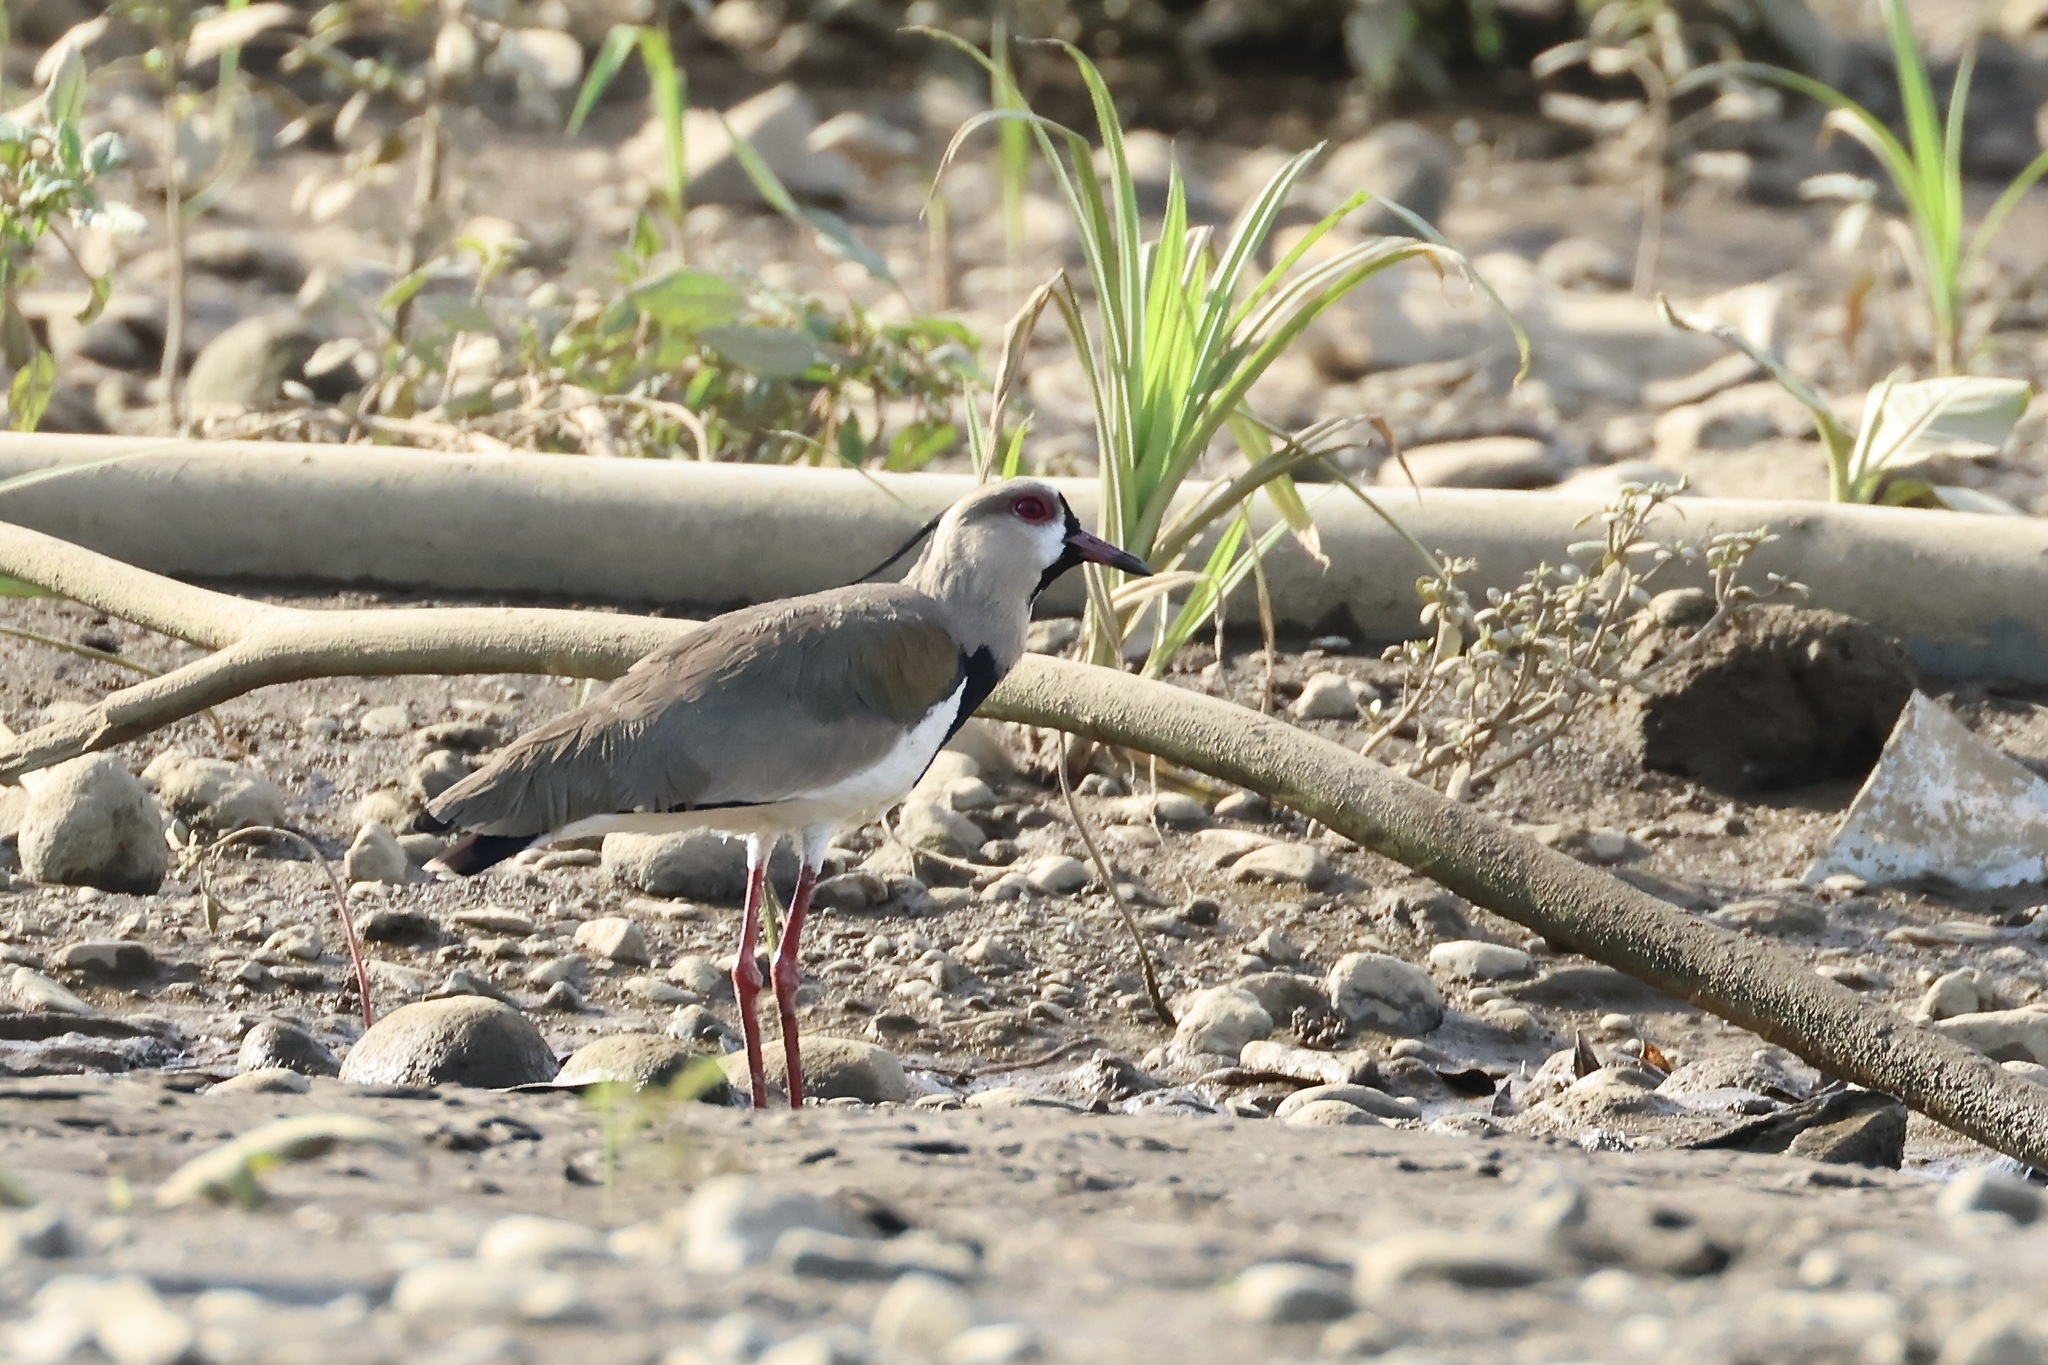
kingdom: Animalia
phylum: Chordata
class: Aves
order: Charadriiformes
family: Charadriidae
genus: Vanellus
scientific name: Vanellus chilensis
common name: Southern lapwing
